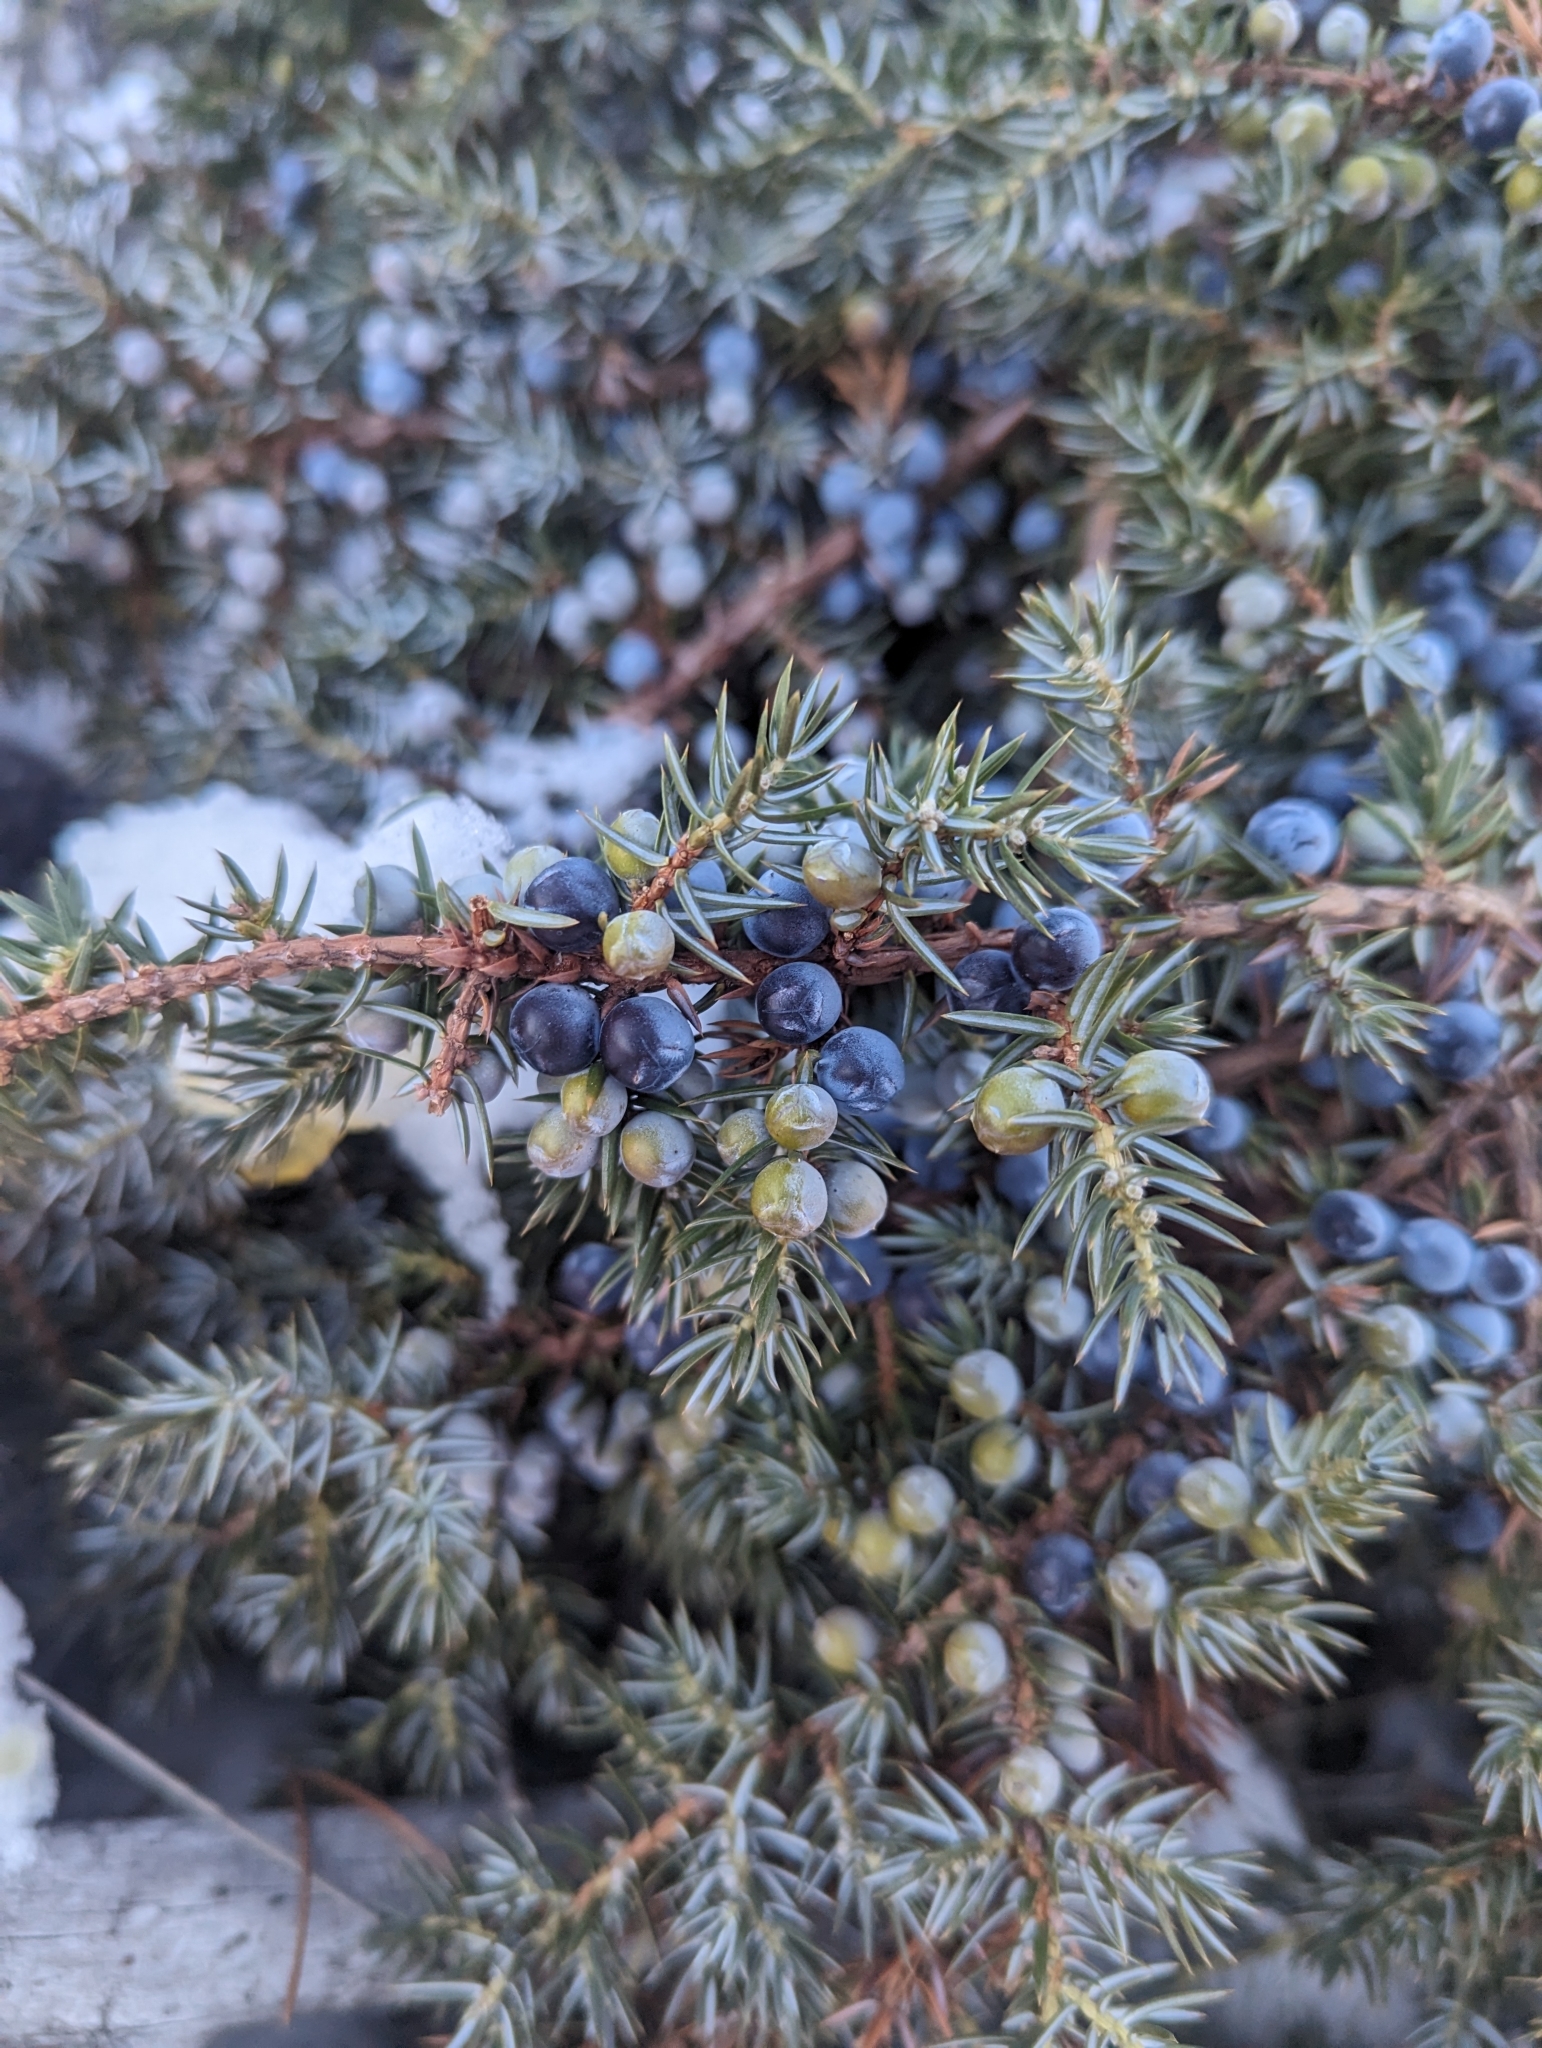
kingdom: Plantae
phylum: Tracheophyta
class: Pinopsida
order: Pinales
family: Cupressaceae
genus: Juniperus
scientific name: Juniperus communis
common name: Common juniper
